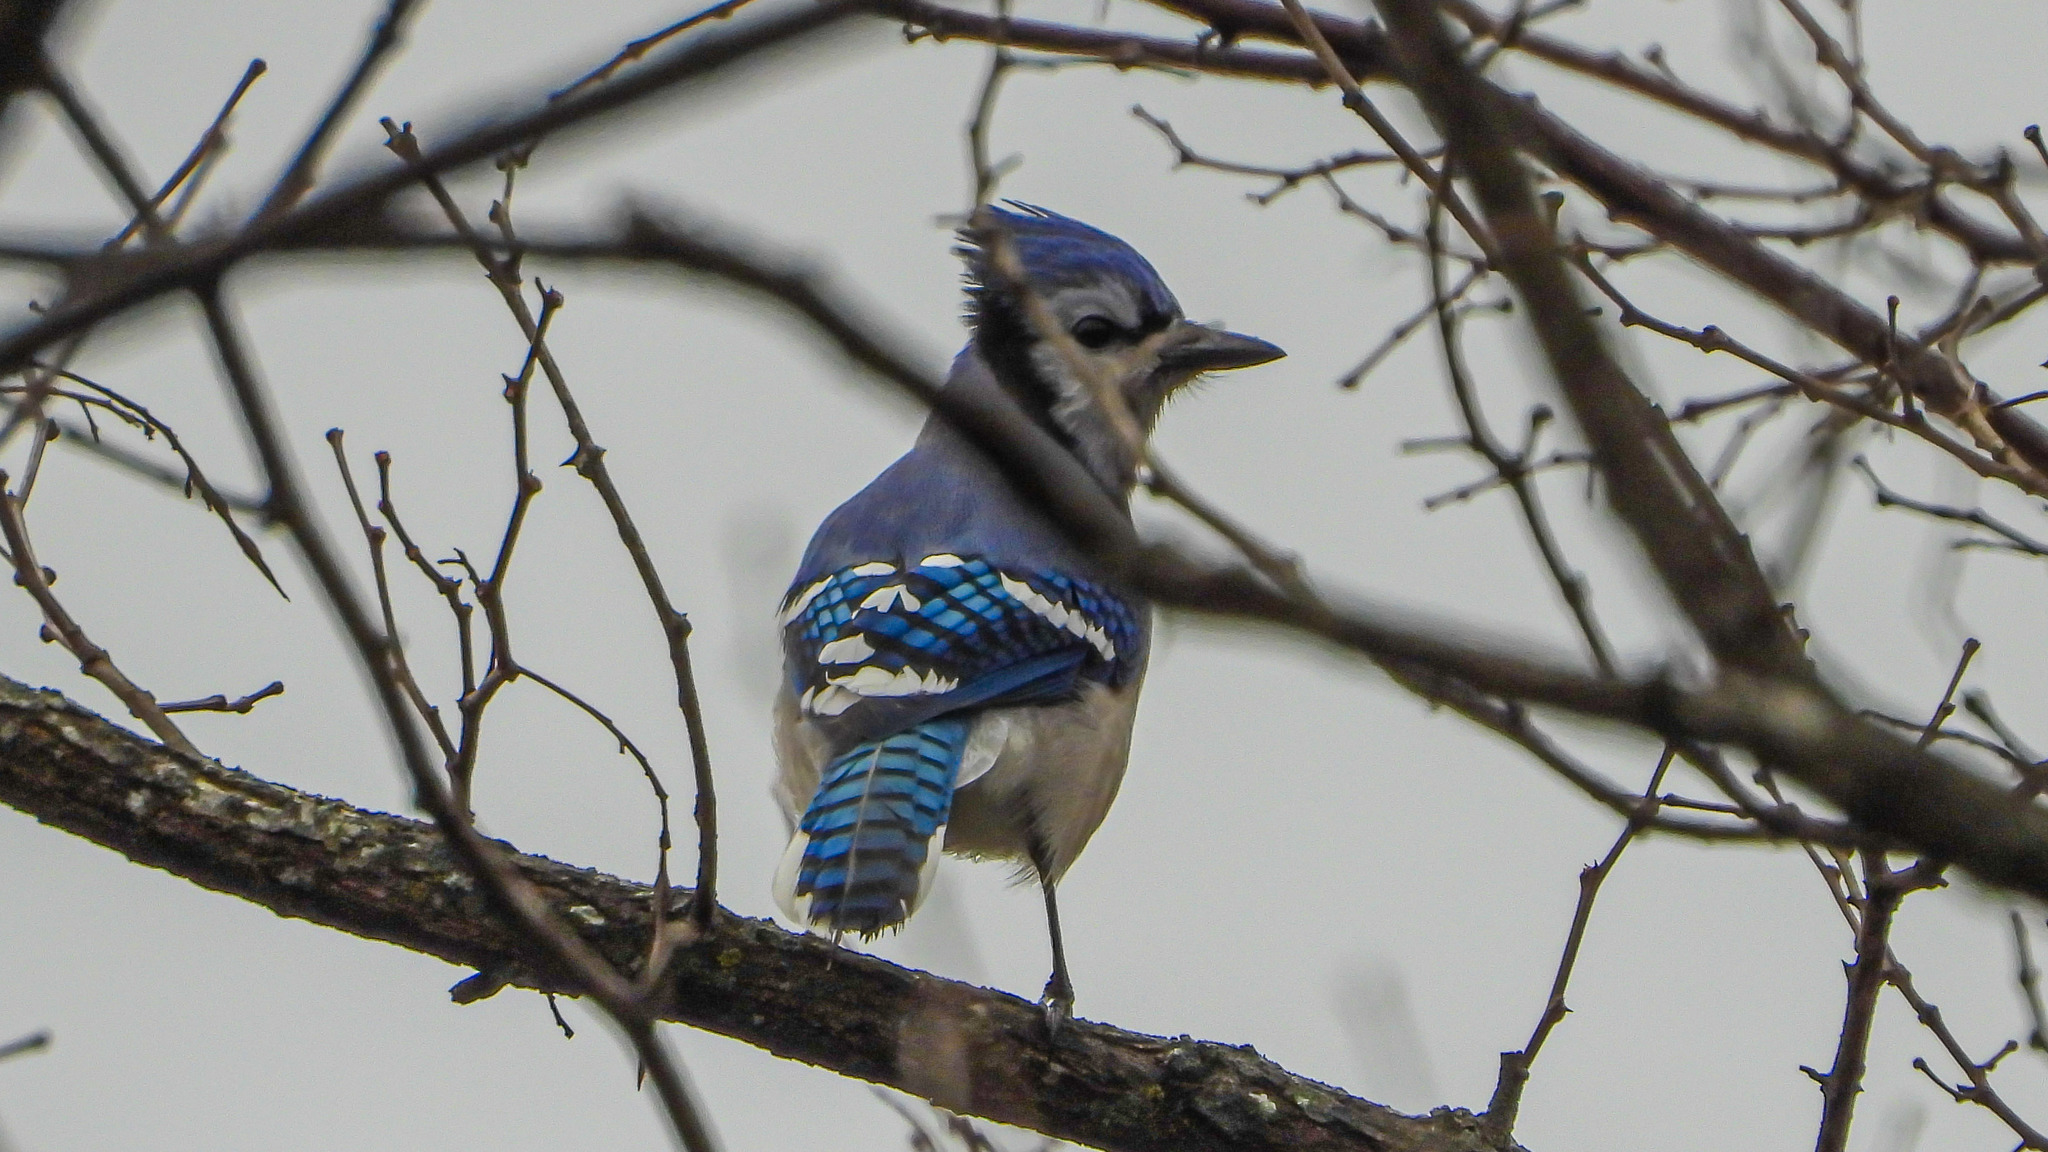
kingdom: Animalia
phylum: Chordata
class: Aves
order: Passeriformes
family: Corvidae
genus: Cyanocitta
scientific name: Cyanocitta cristata
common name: Blue jay
